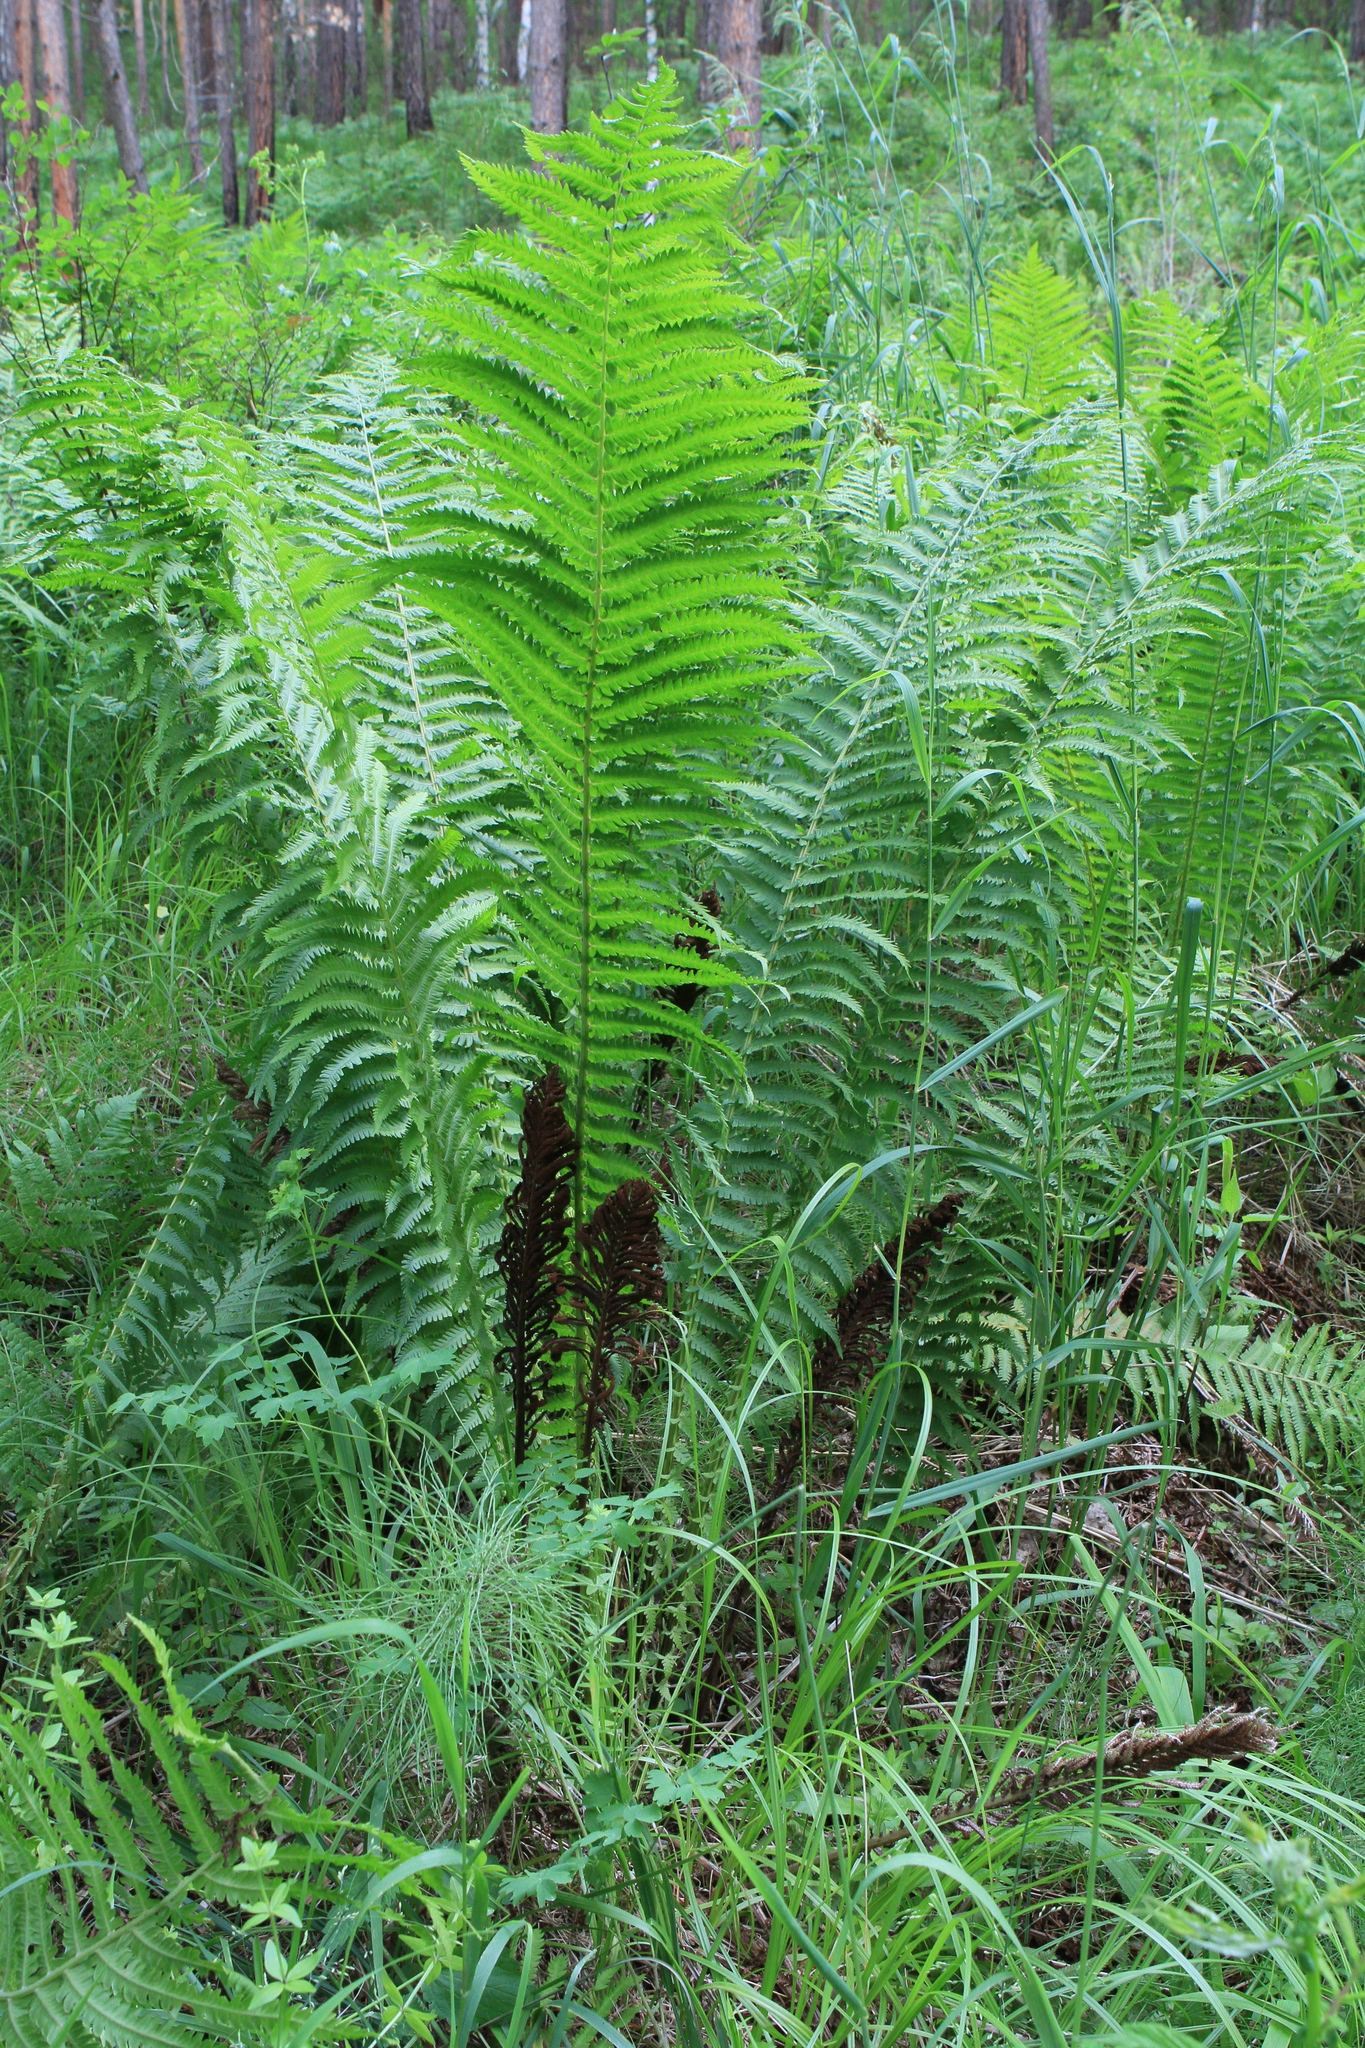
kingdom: Plantae
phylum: Tracheophyta
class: Polypodiopsida
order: Polypodiales
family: Onocleaceae
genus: Matteuccia
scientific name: Matteuccia struthiopteris
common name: Ostrich fern
